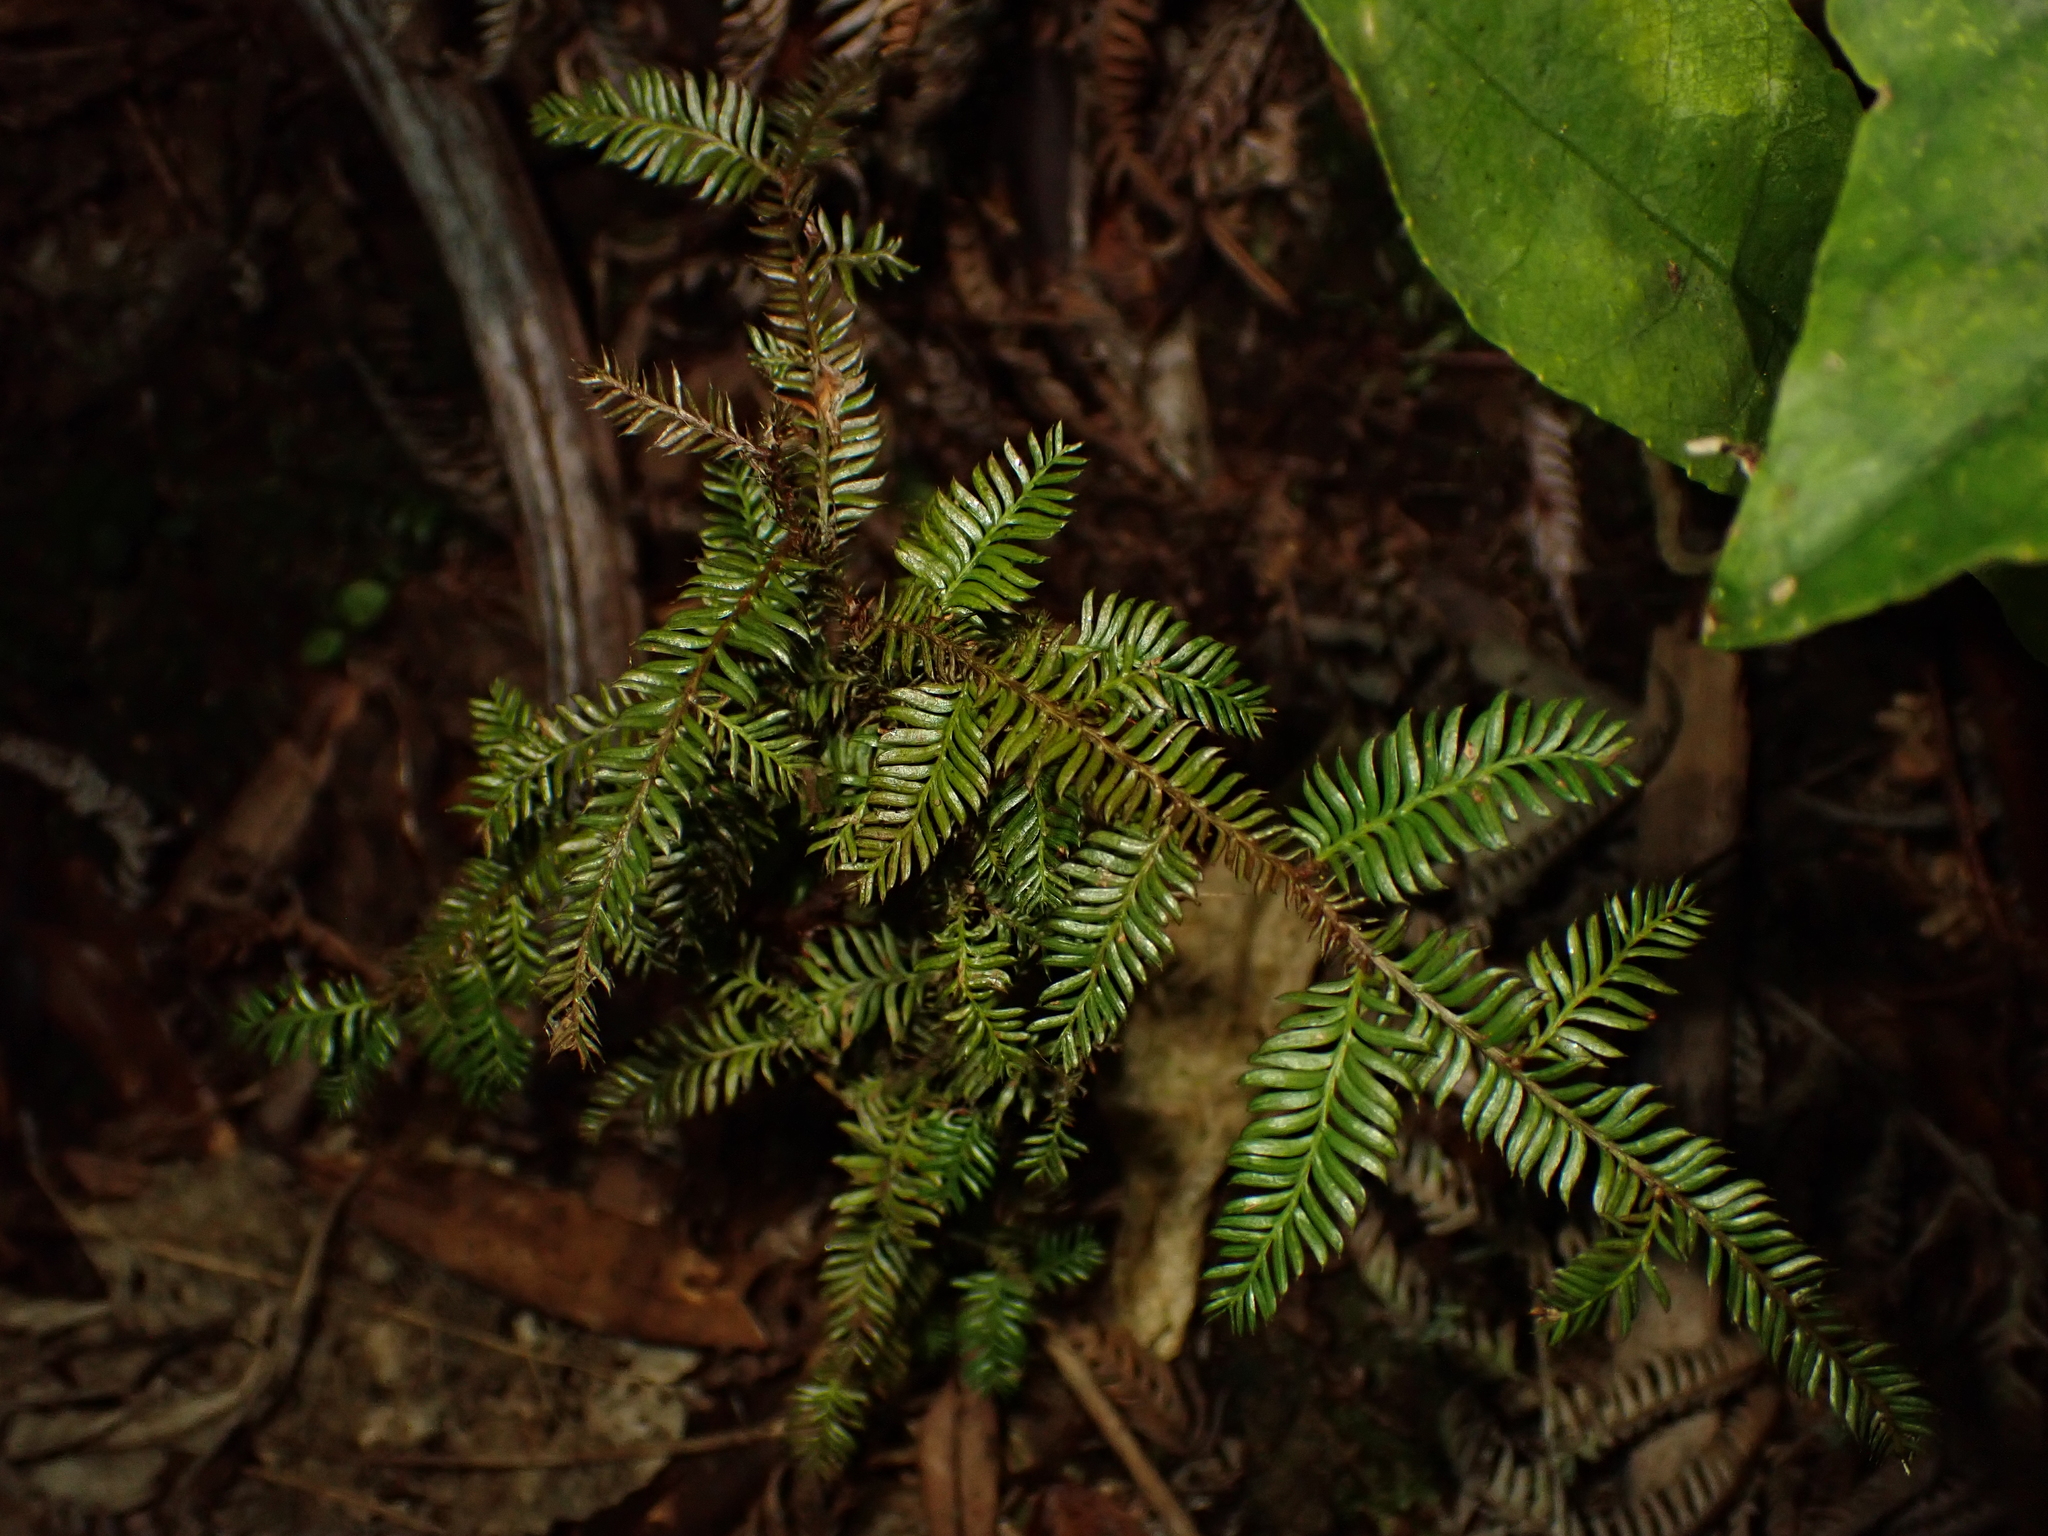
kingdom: Plantae
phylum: Tracheophyta
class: Pinopsida
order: Pinales
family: Podocarpaceae
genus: Dacrycarpus
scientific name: Dacrycarpus dacrydioides
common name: White pine
